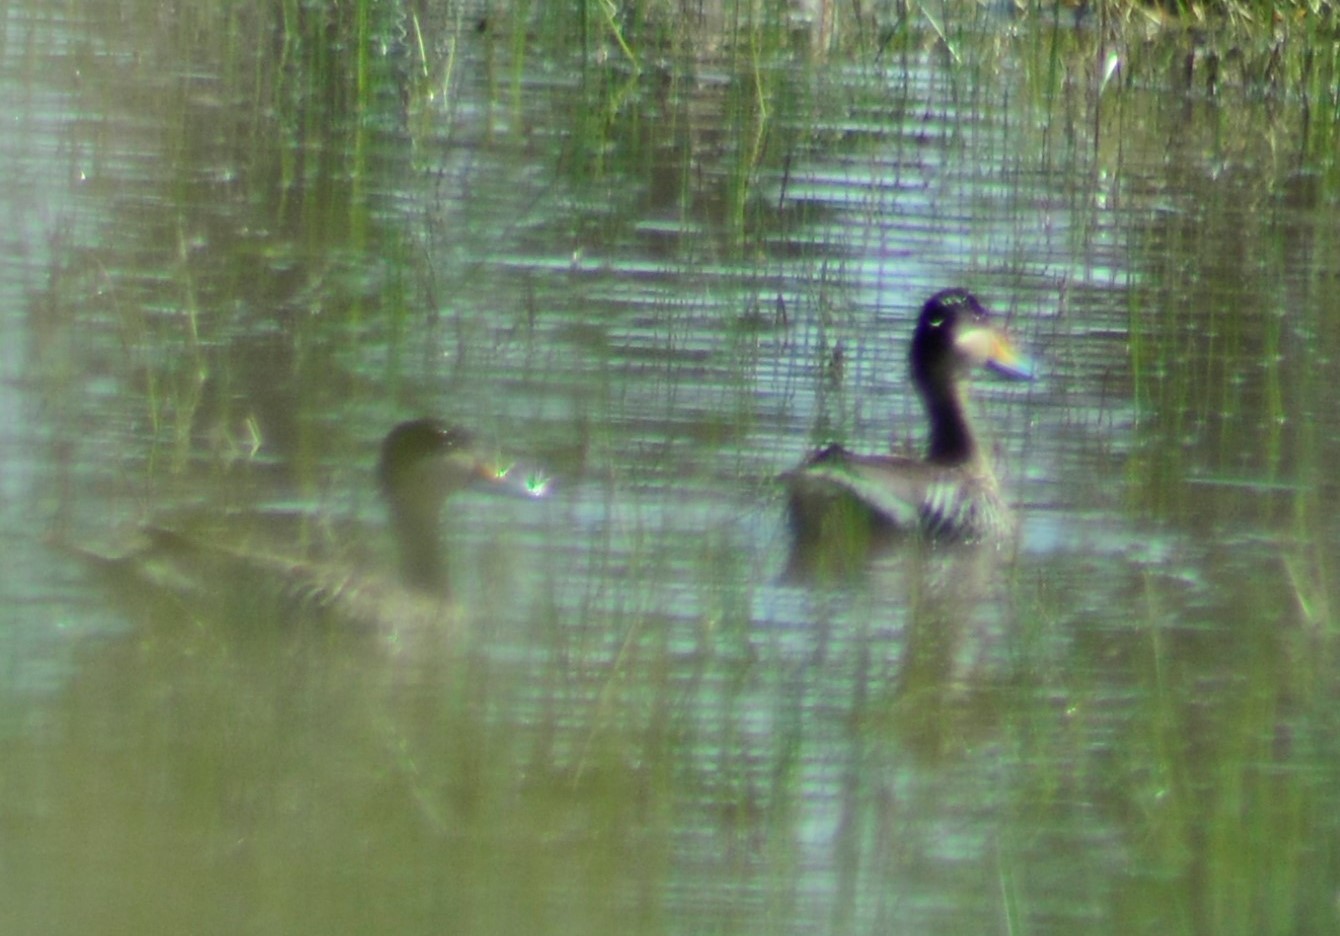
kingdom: Animalia
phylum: Chordata
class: Aves
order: Anseriformes
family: Anatidae
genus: Spatula
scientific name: Spatula versicolor
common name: Silver teal
